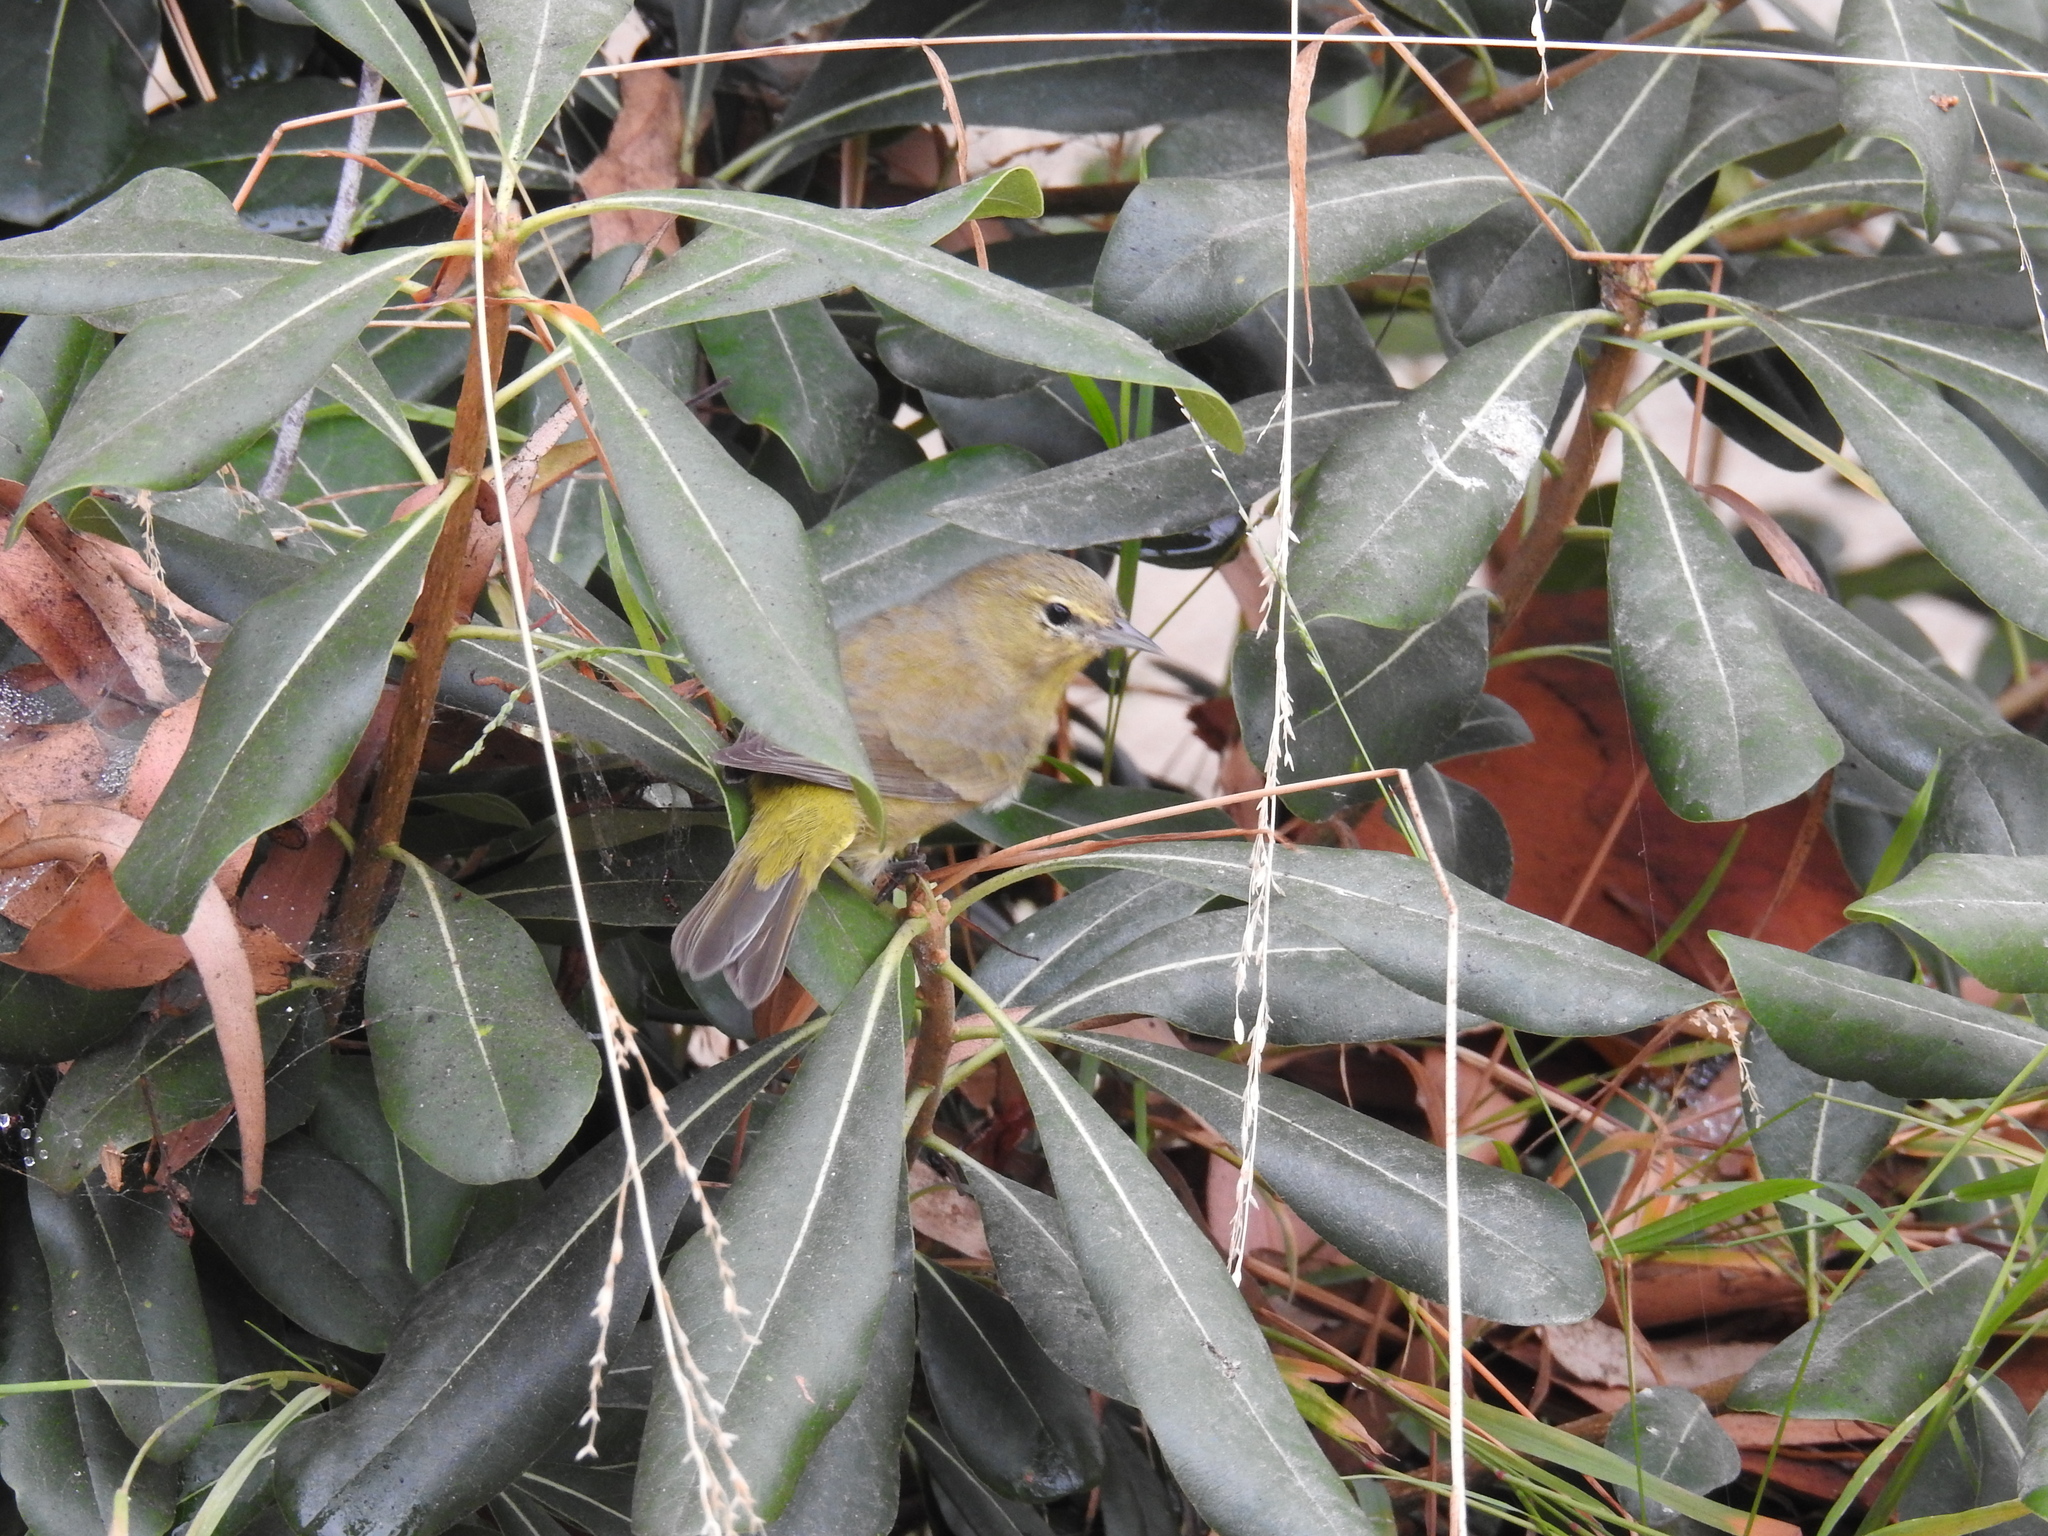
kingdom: Animalia
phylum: Chordata
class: Aves
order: Passeriformes
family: Parulidae
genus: Leiothlypis
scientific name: Leiothlypis celata
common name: Orange-crowned warbler
